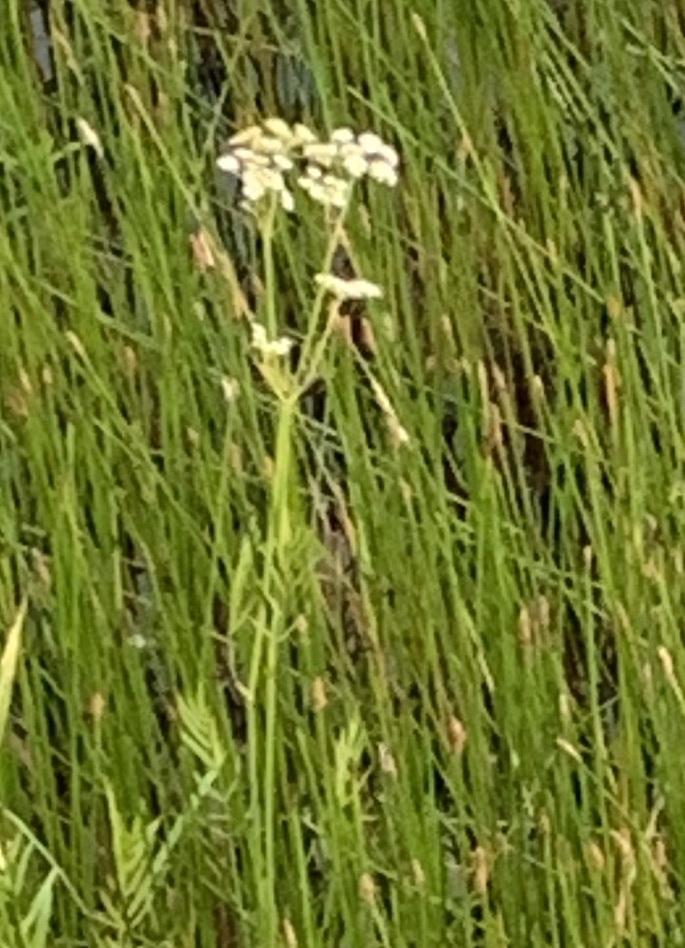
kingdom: Plantae
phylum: Tracheophyta
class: Magnoliopsida
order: Apiales
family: Apiaceae
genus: Sium
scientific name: Sium suave
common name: Hemlock water-parsnip
